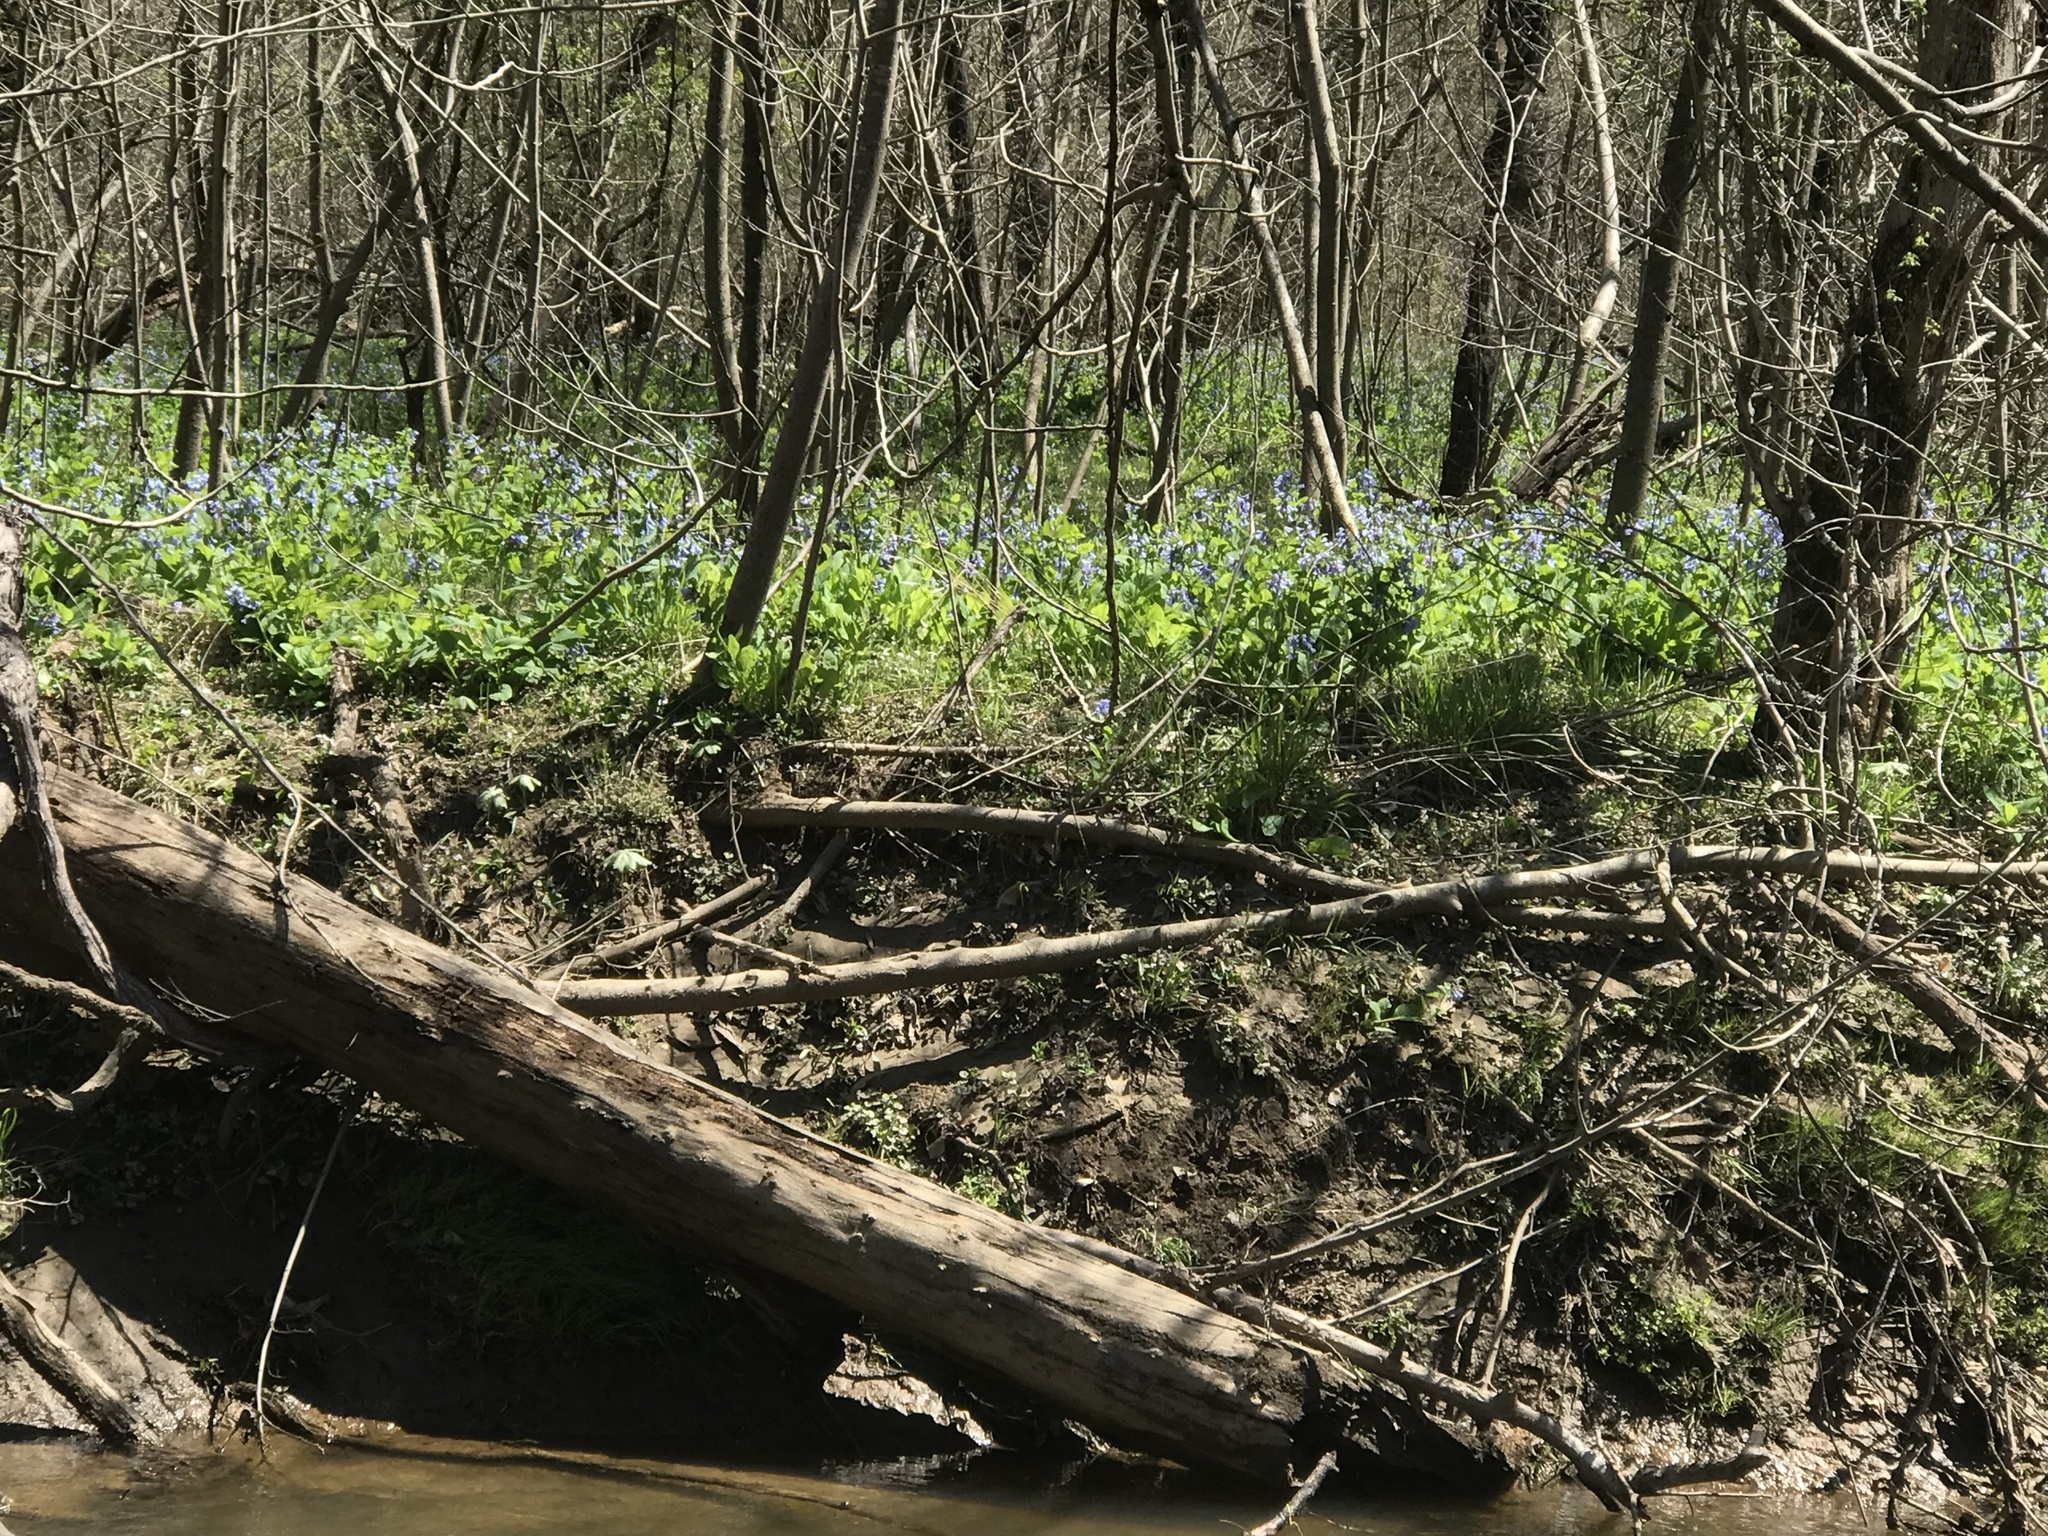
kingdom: Plantae
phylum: Tracheophyta
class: Magnoliopsida
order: Boraginales
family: Boraginaceae
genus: Mertensia
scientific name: Mertensia virginica
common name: Virginia bluebells
